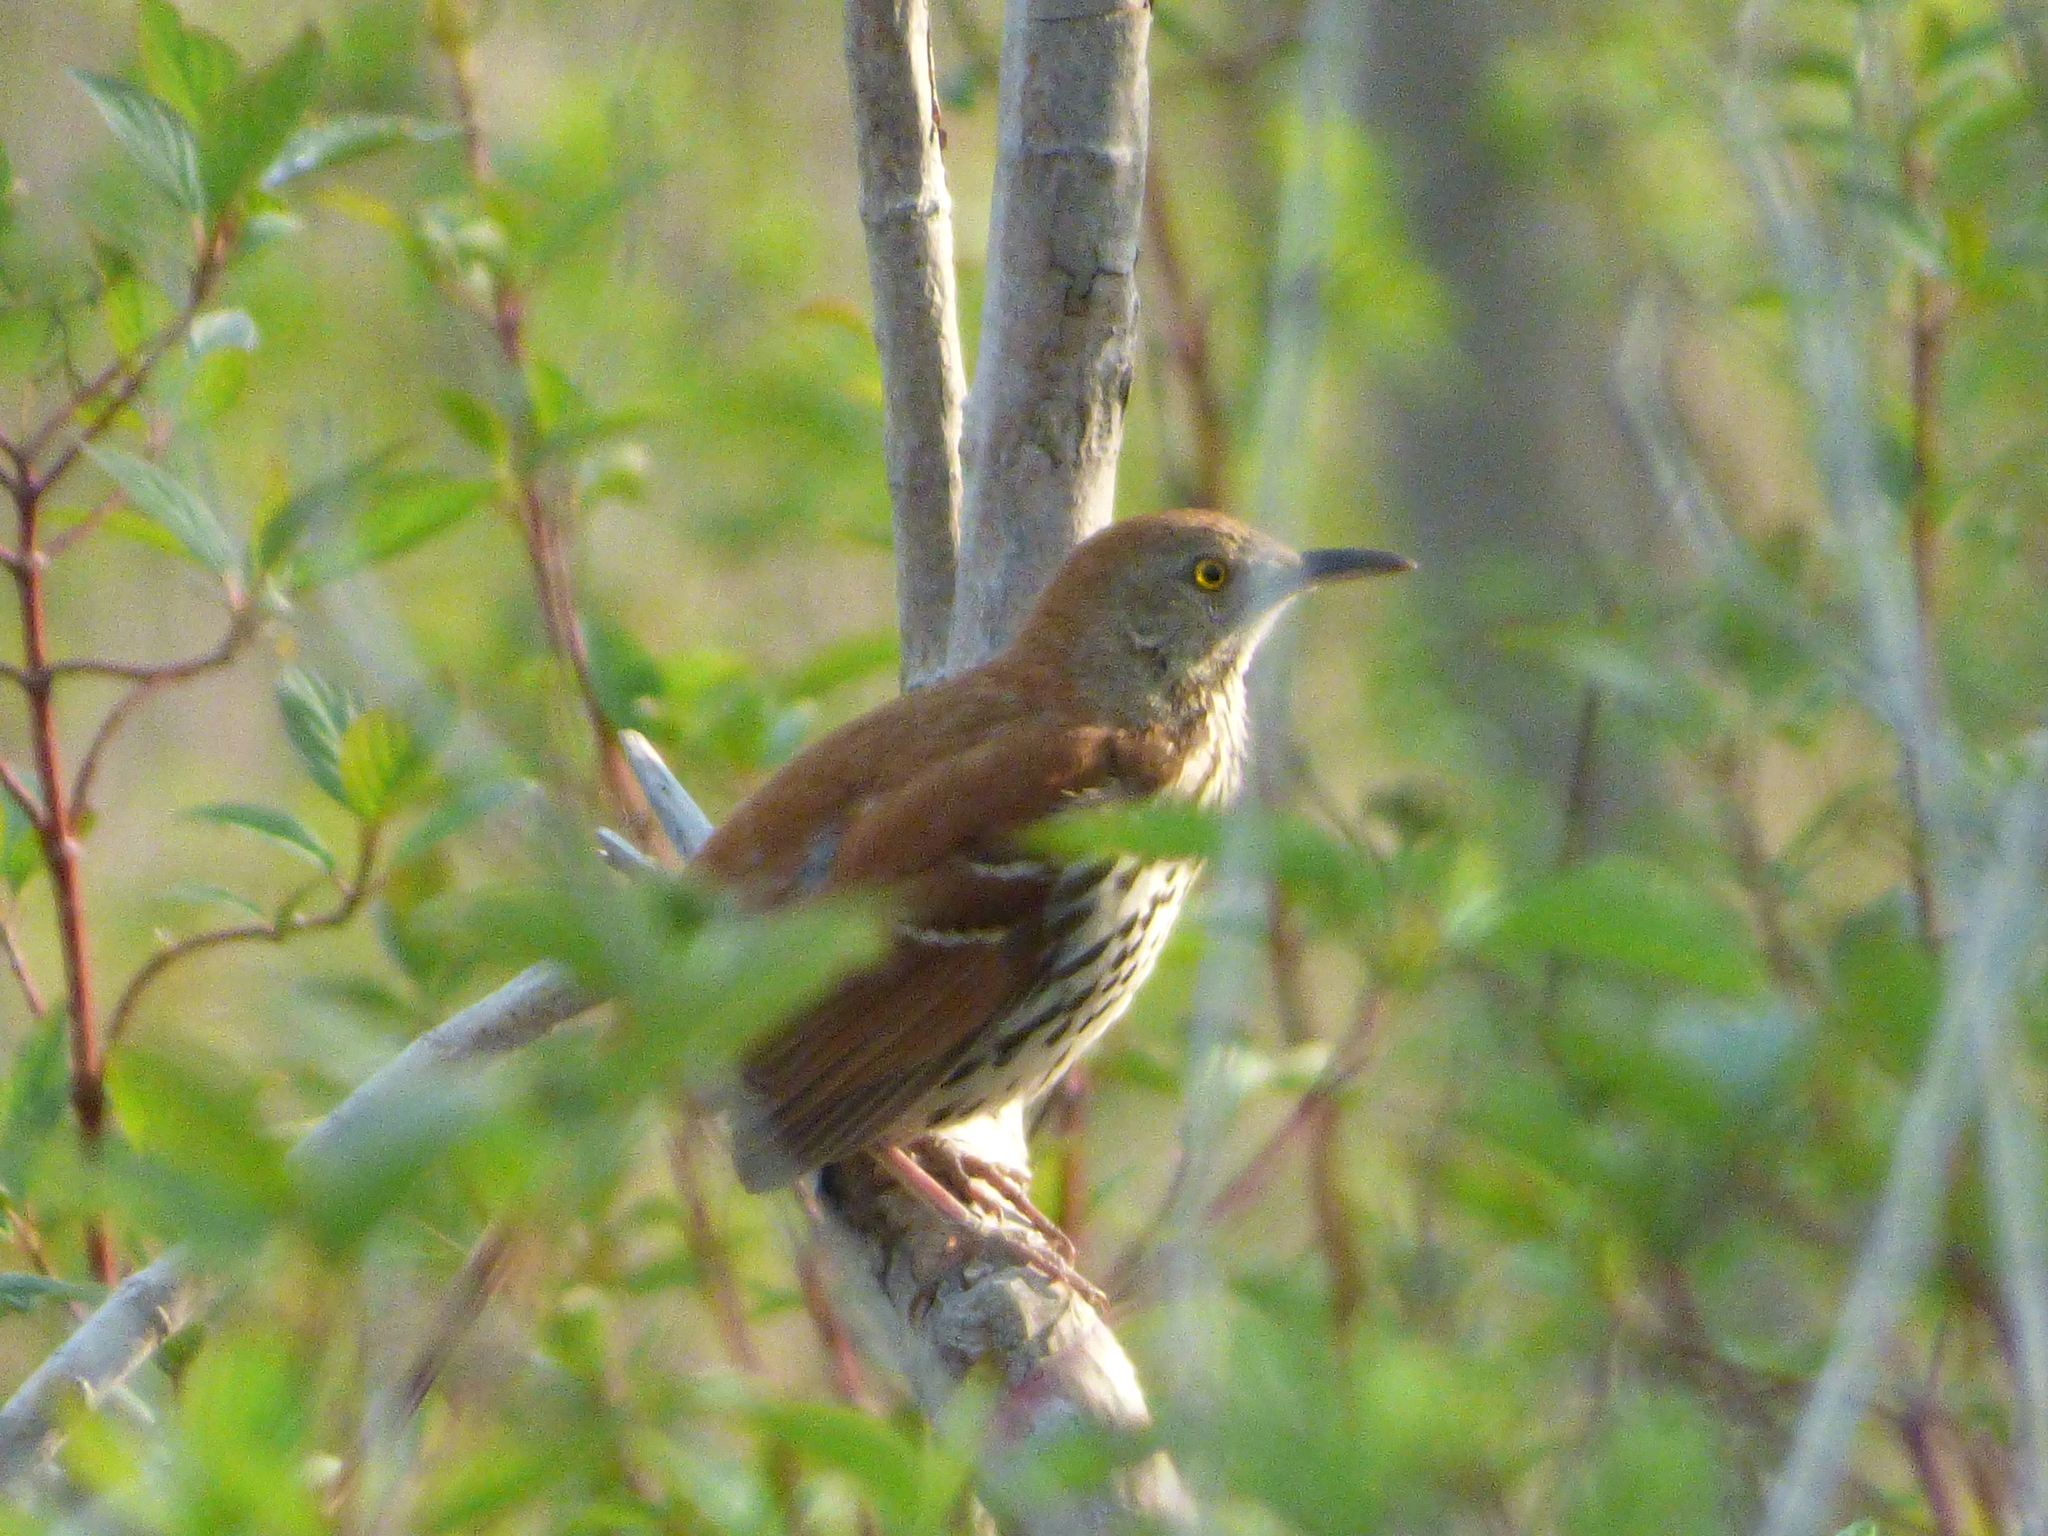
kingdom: Animalia
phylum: Chordata
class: Aves
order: Passeriformes
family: Mimidae
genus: Toxostoma
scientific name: Toxostoma rufum
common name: Brown thrasher
